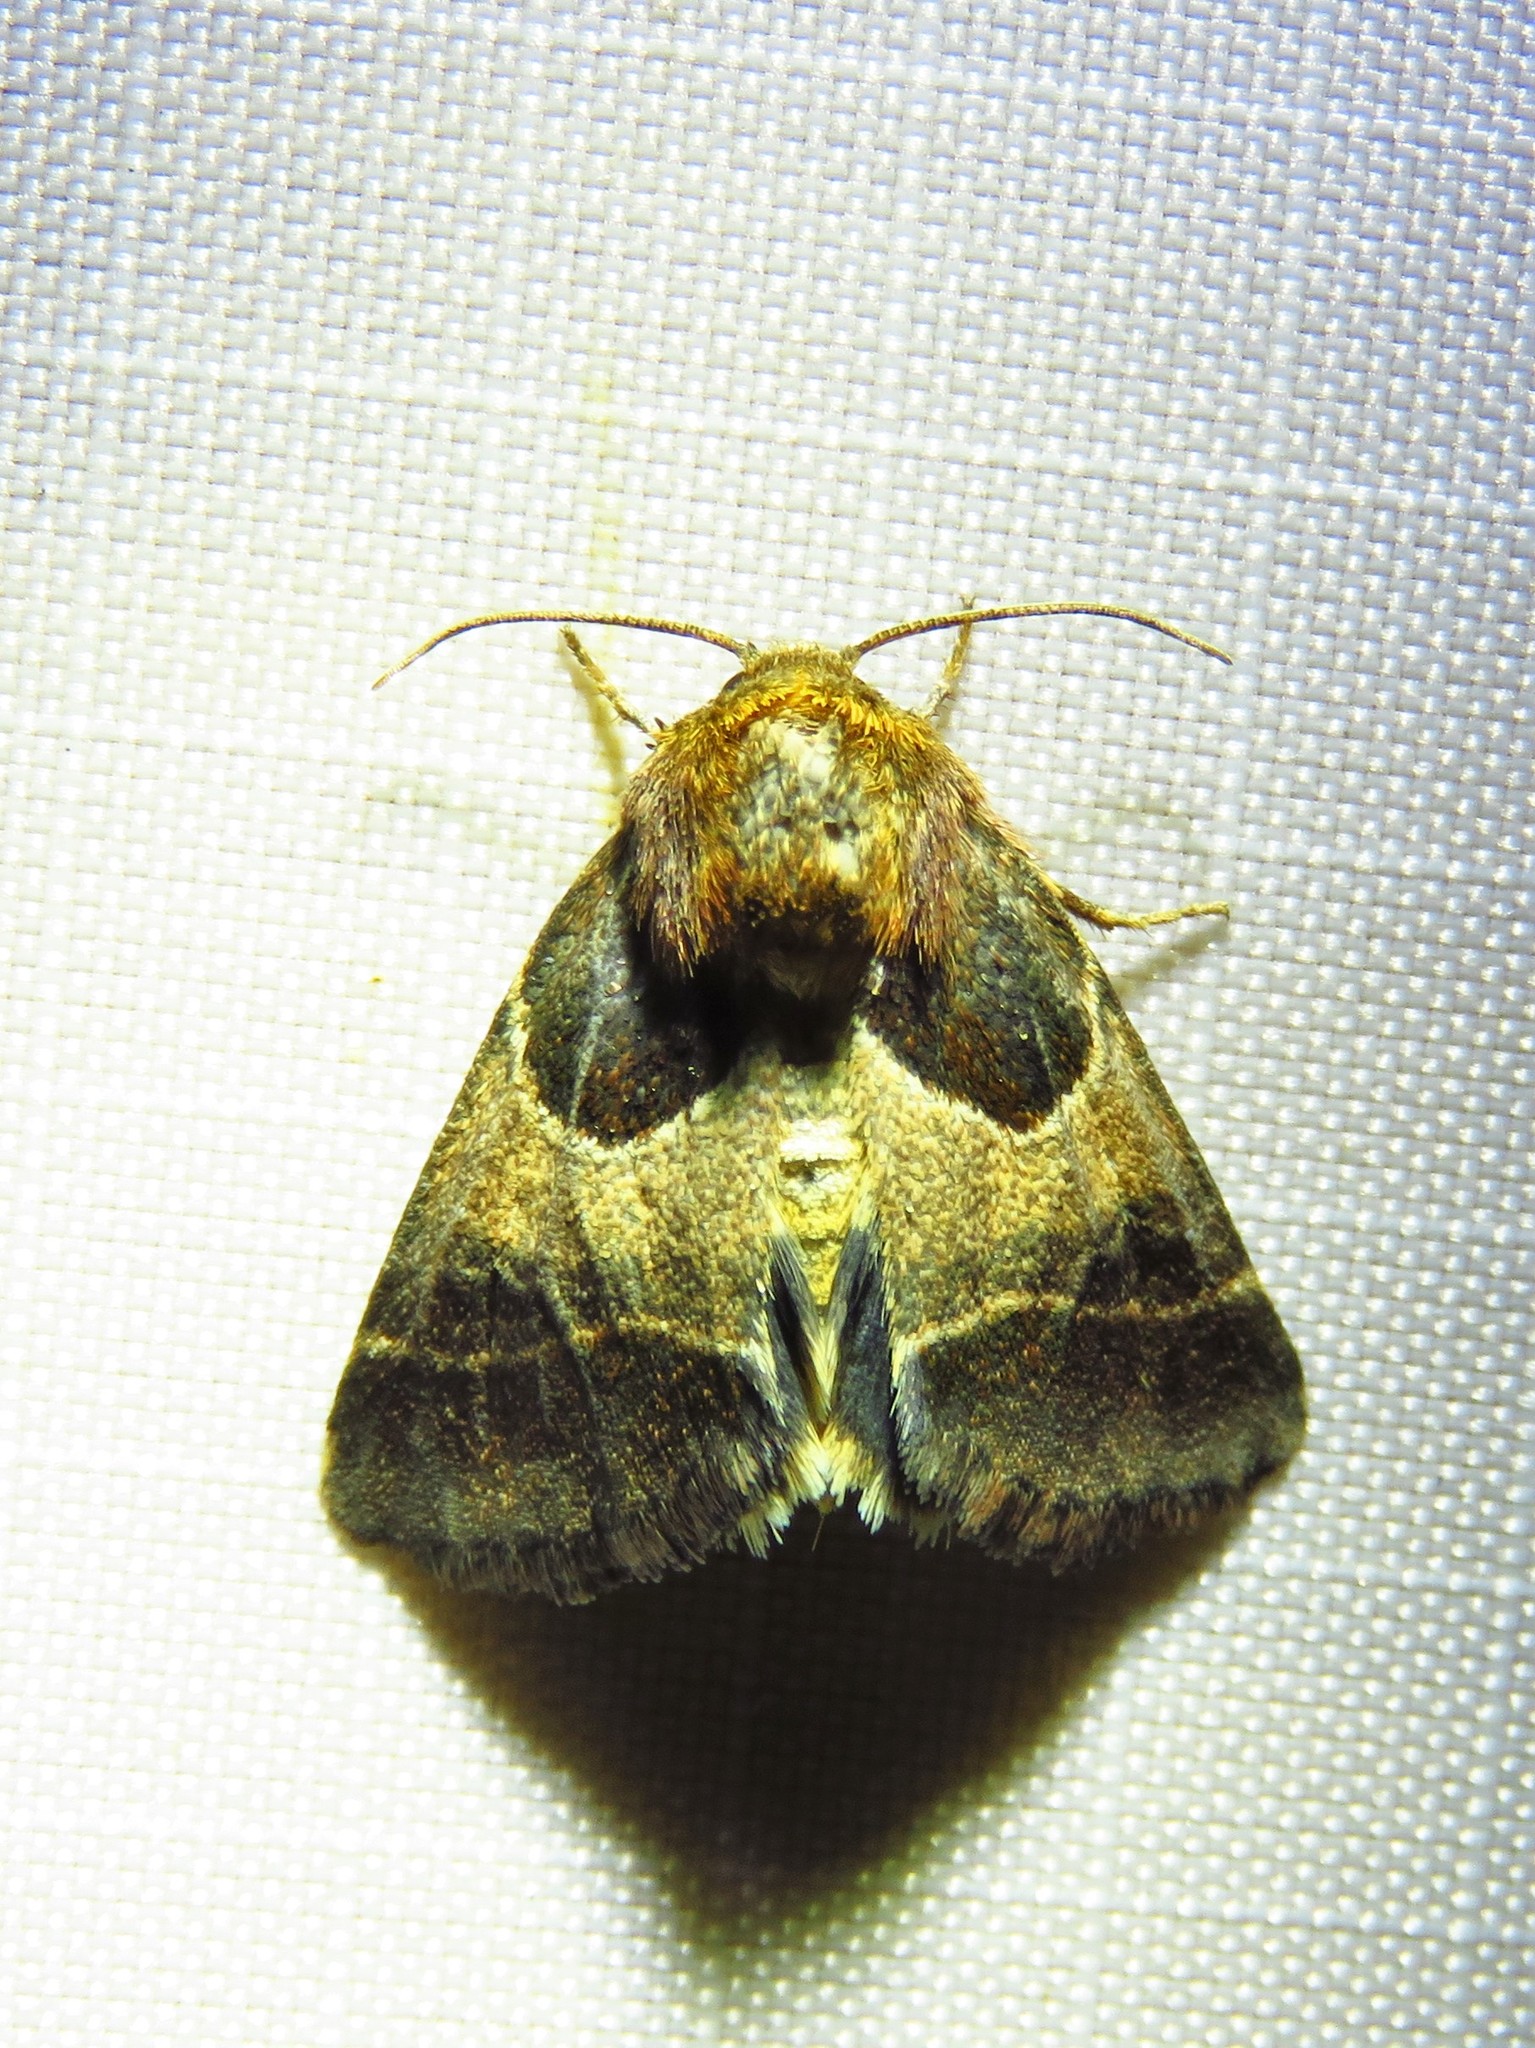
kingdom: Animalia
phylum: Arthropoda
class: Insecta
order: Lepidoptera
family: Noctuidae
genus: Schinia
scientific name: Schinia arcigera
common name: Arcigera flower moth
